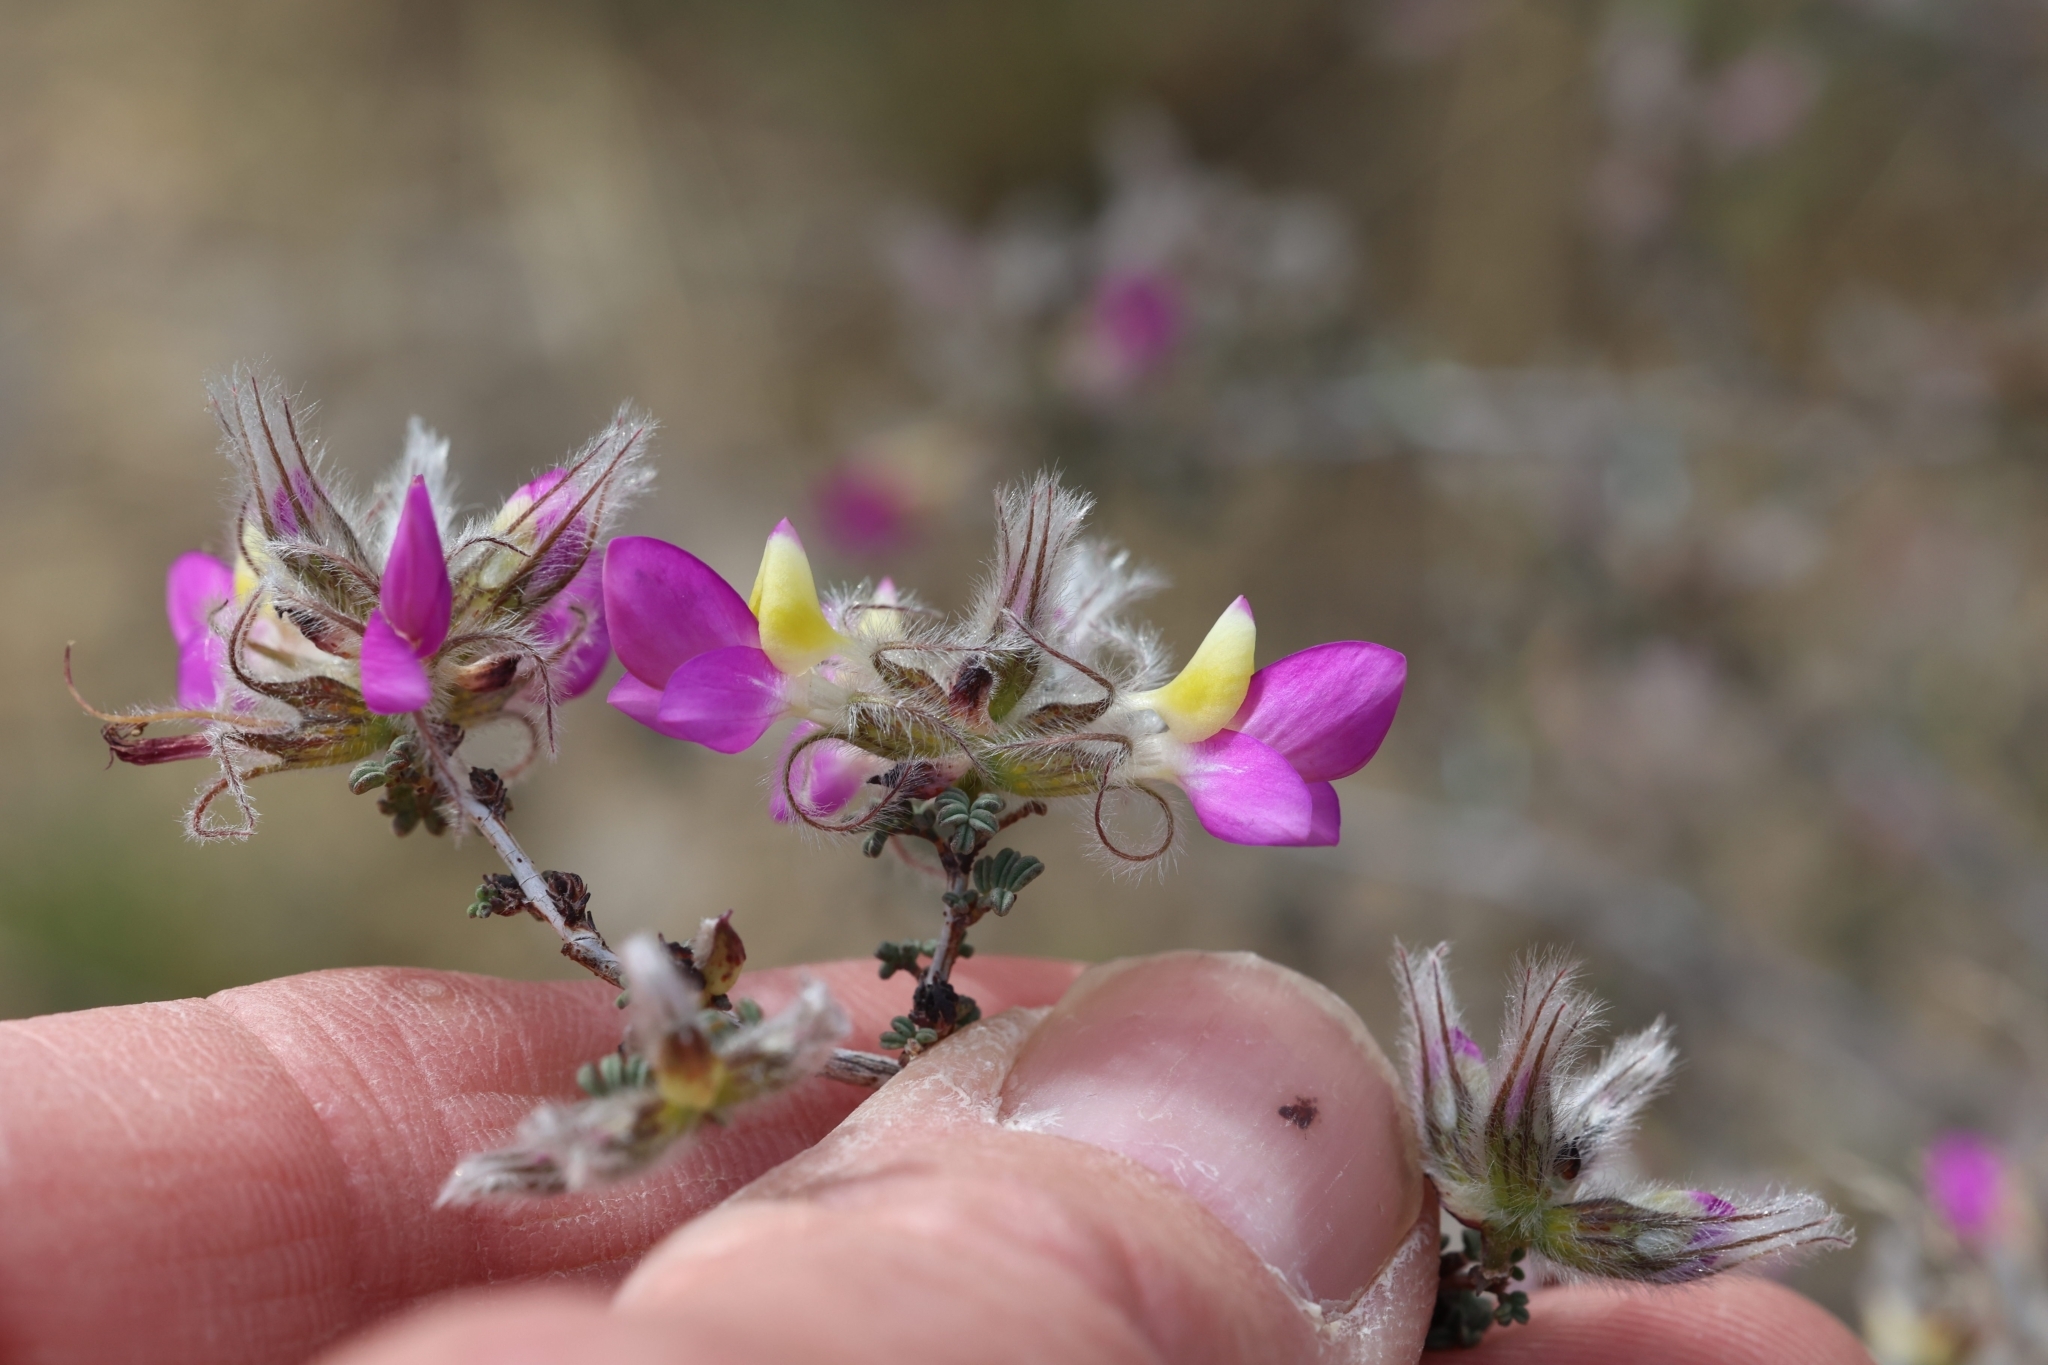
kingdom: Plantae
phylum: Tracheophyta
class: Magnoliopsida
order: Fabales
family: Fabaceae
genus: Dalea
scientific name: Dalea formosa
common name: Feather-plume dalea
